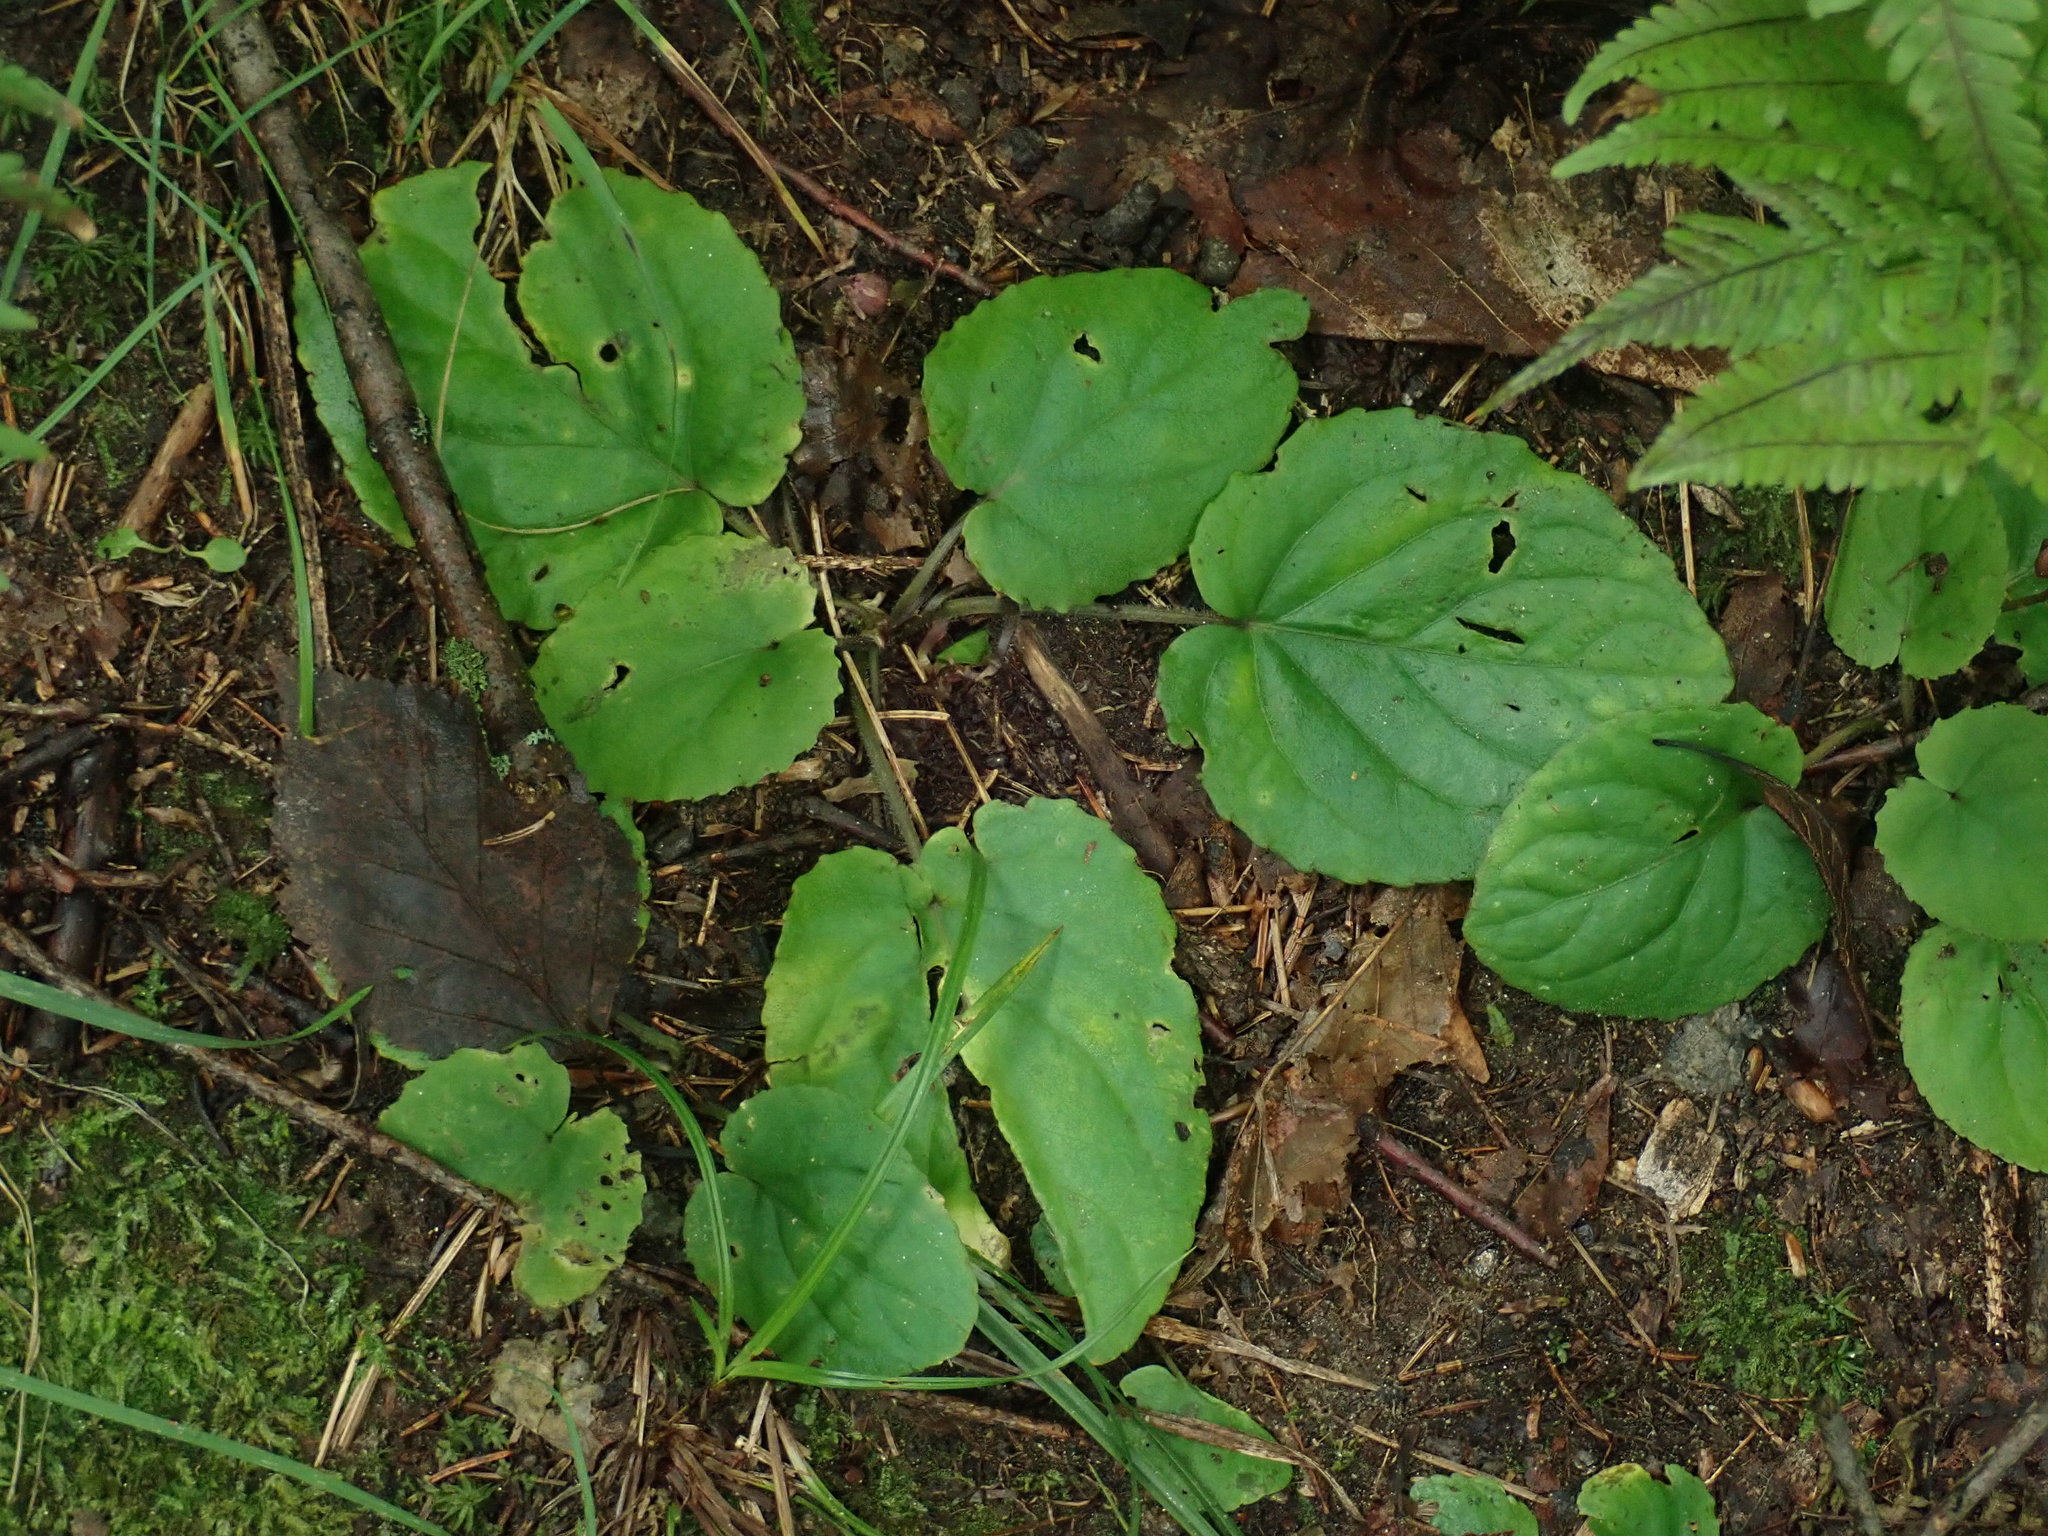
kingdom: Plantae
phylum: Tracheophyta
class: Magnoliopsida
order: Malpighiales
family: Violaceae
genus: Viola
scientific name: Viola rotundifolia
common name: Early yellow violet
